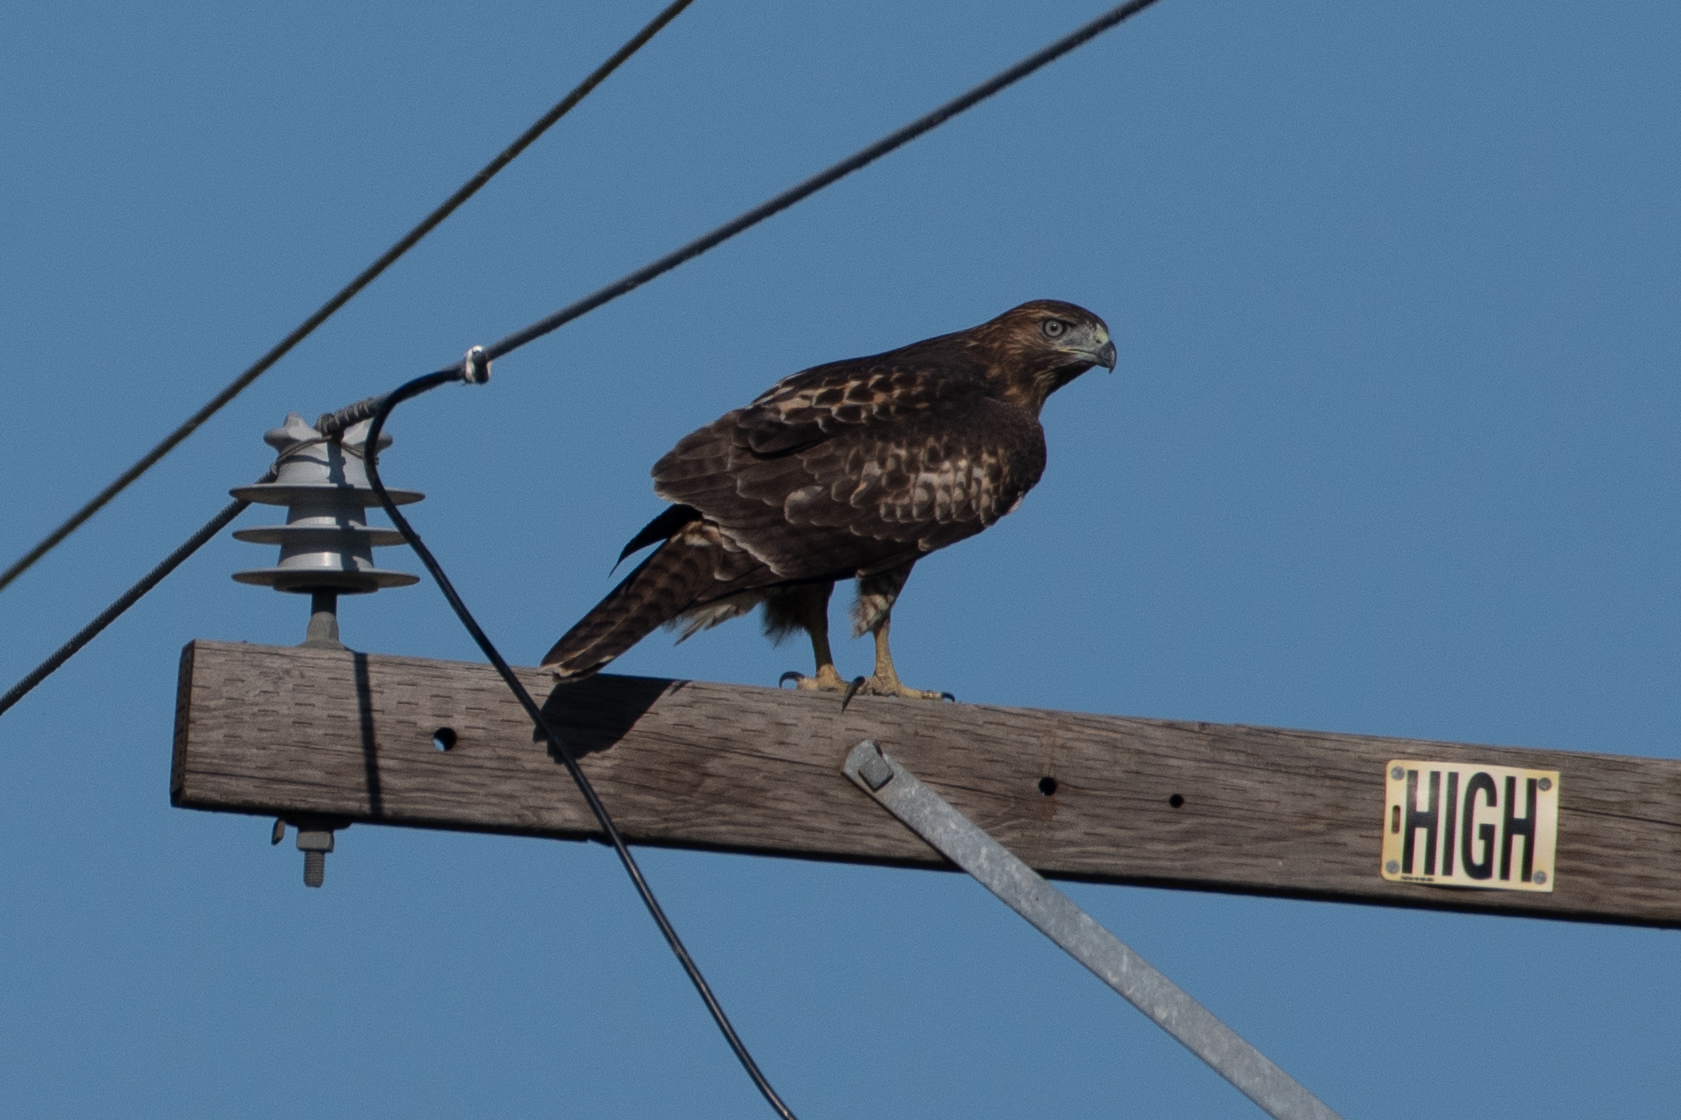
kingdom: Animalia
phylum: Chordata
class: Aves
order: Accipitriformes
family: Accipitridae
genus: Buteo
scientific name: Buteo jamaicensis
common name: Red-tailed hawk
